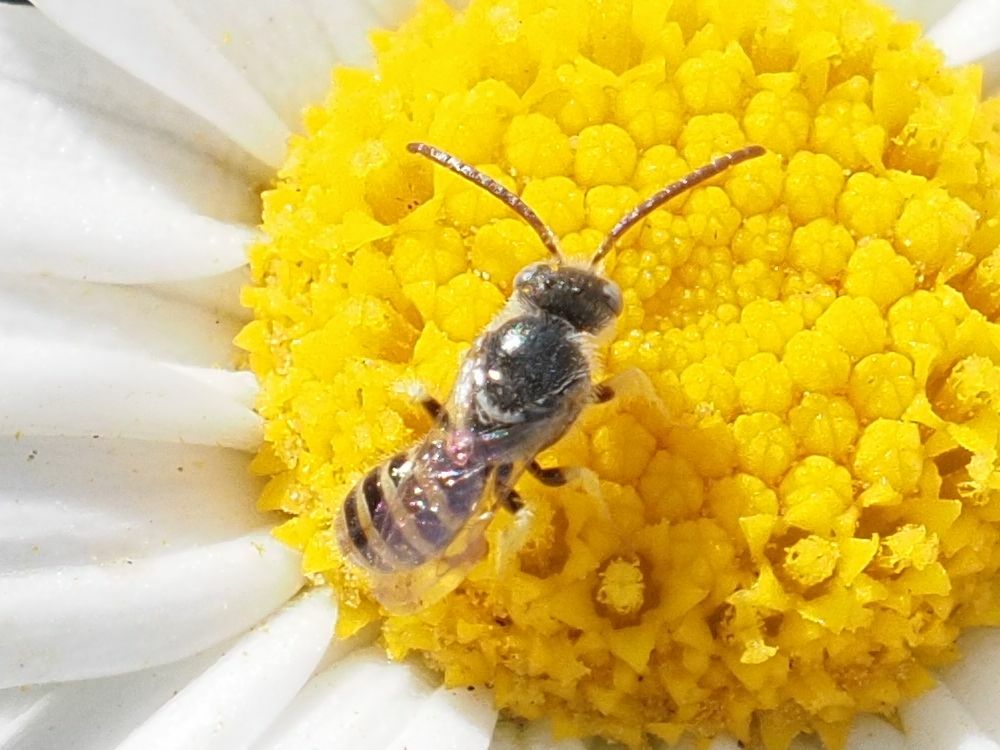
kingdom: Animalia
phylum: Arthropoda
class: Insecta
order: Hymenoptera
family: Halictidae
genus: Nomioides
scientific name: Nomioides deceptor
